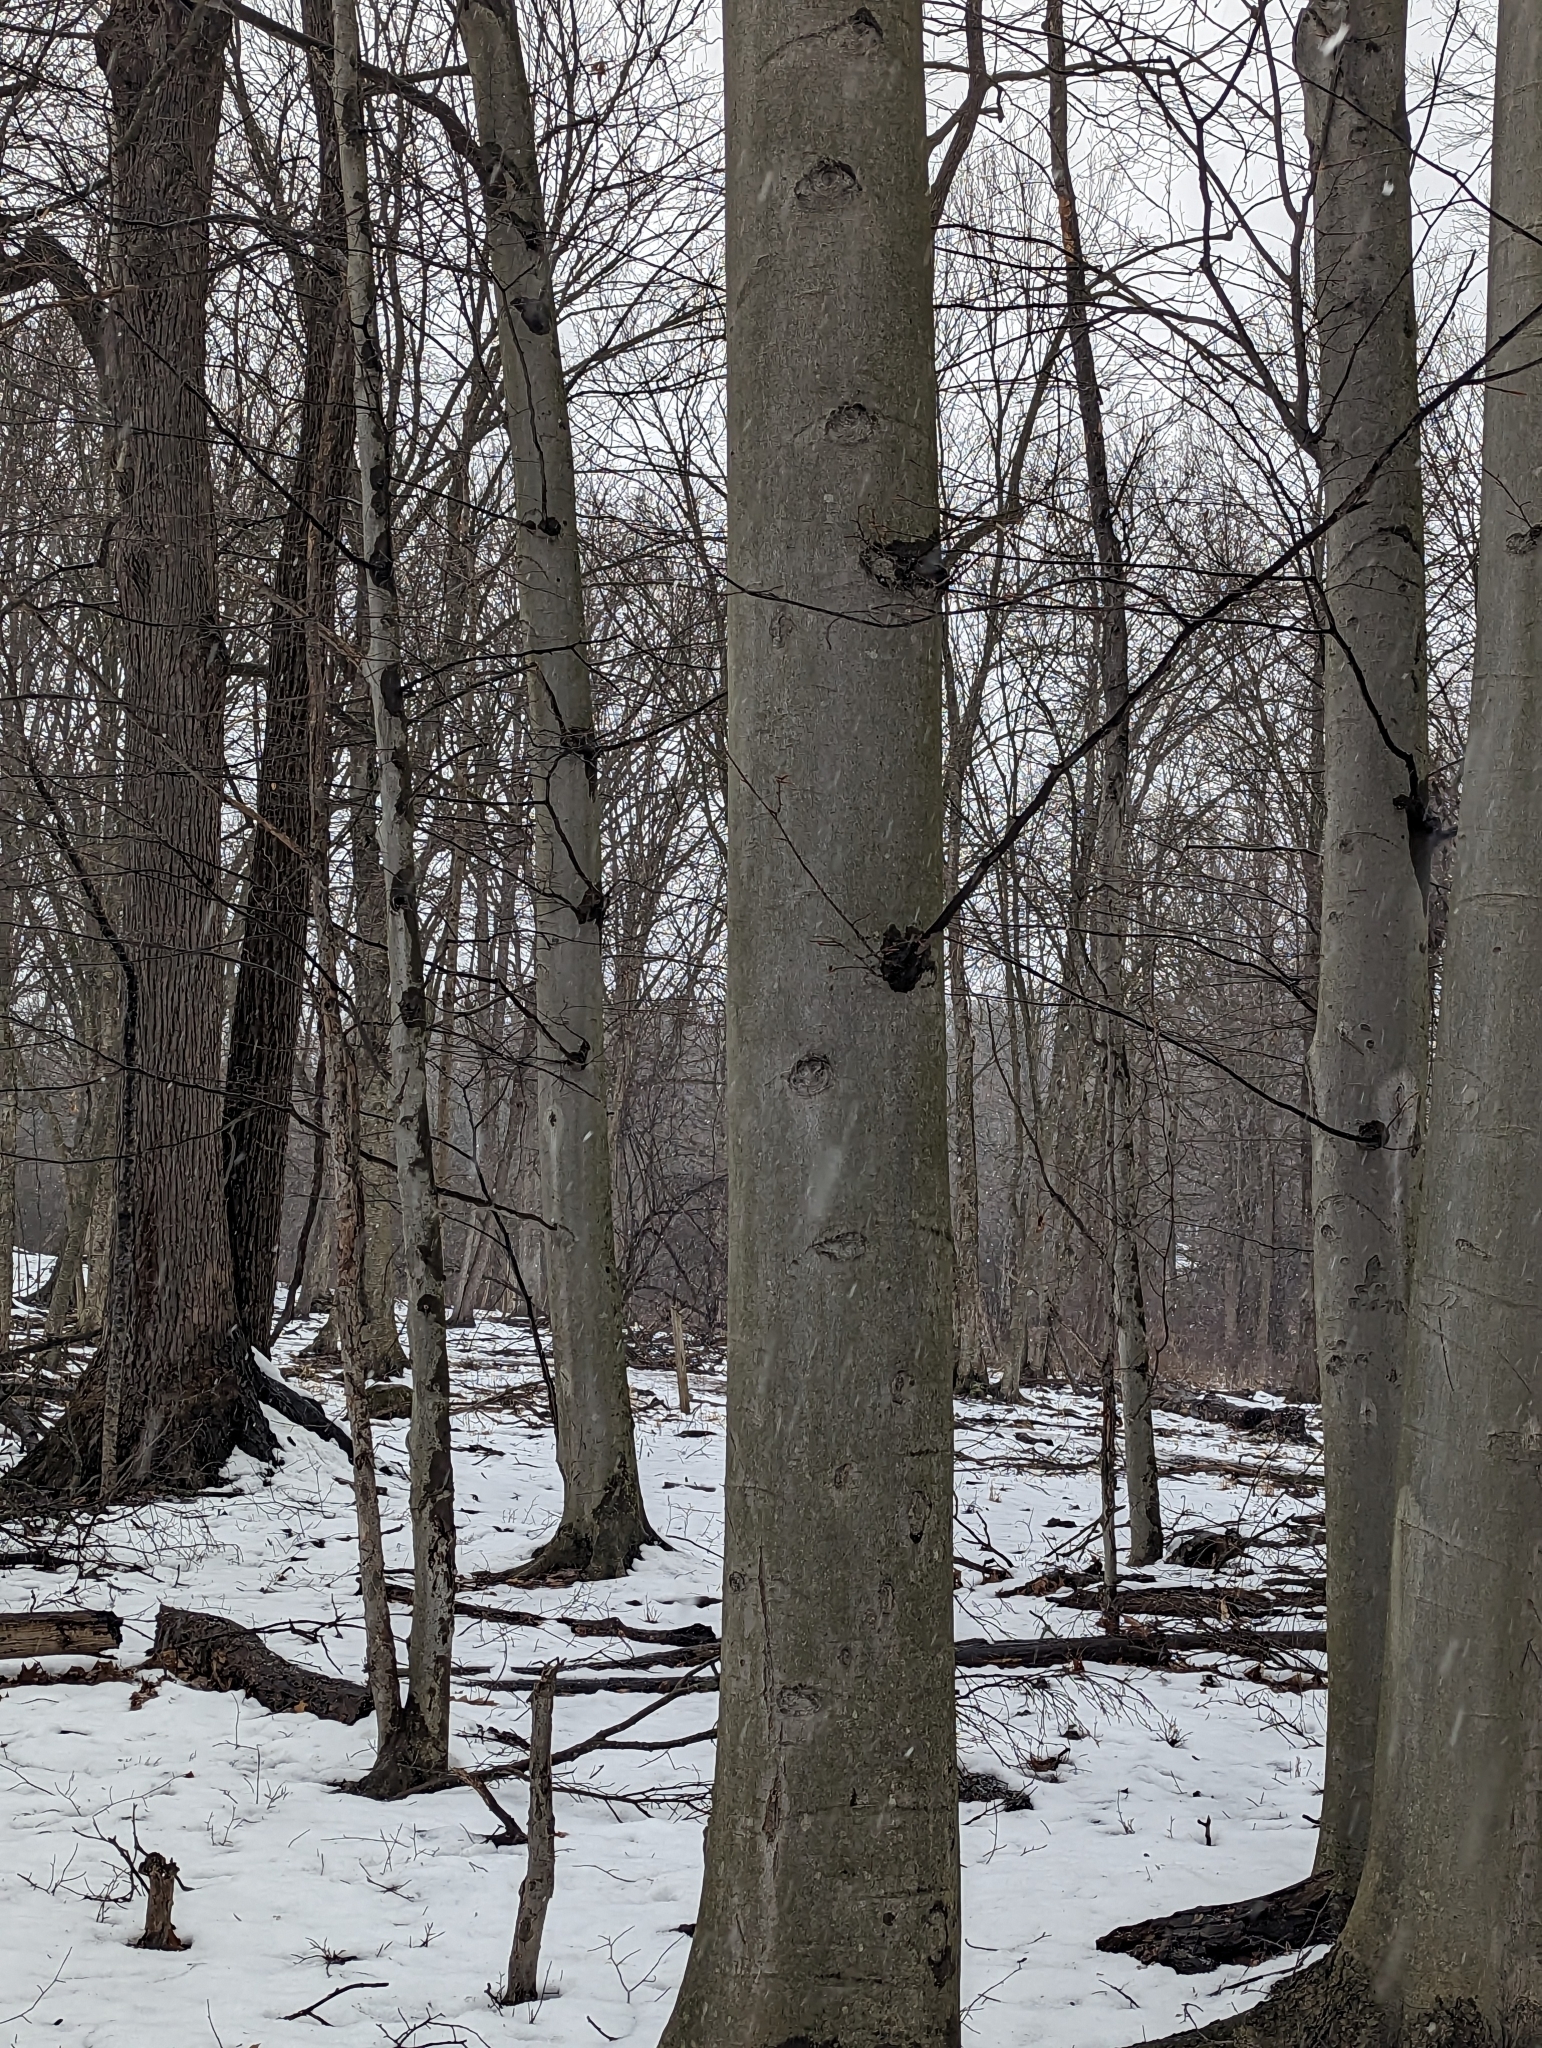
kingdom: Plantae
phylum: Tracheophyta
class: Magnoliopsida
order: Fagales
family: Fagaceae
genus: Fagus
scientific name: Fagus grandifolia
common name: American beech
